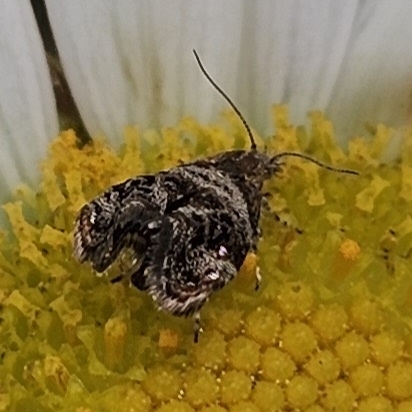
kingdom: Animalia
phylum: Arthropoda
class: Insecta
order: Lepidoptera
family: Choreutidae
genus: Tebenna
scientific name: Tebenna gnaphaliella
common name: Everlasting tebenna moth
